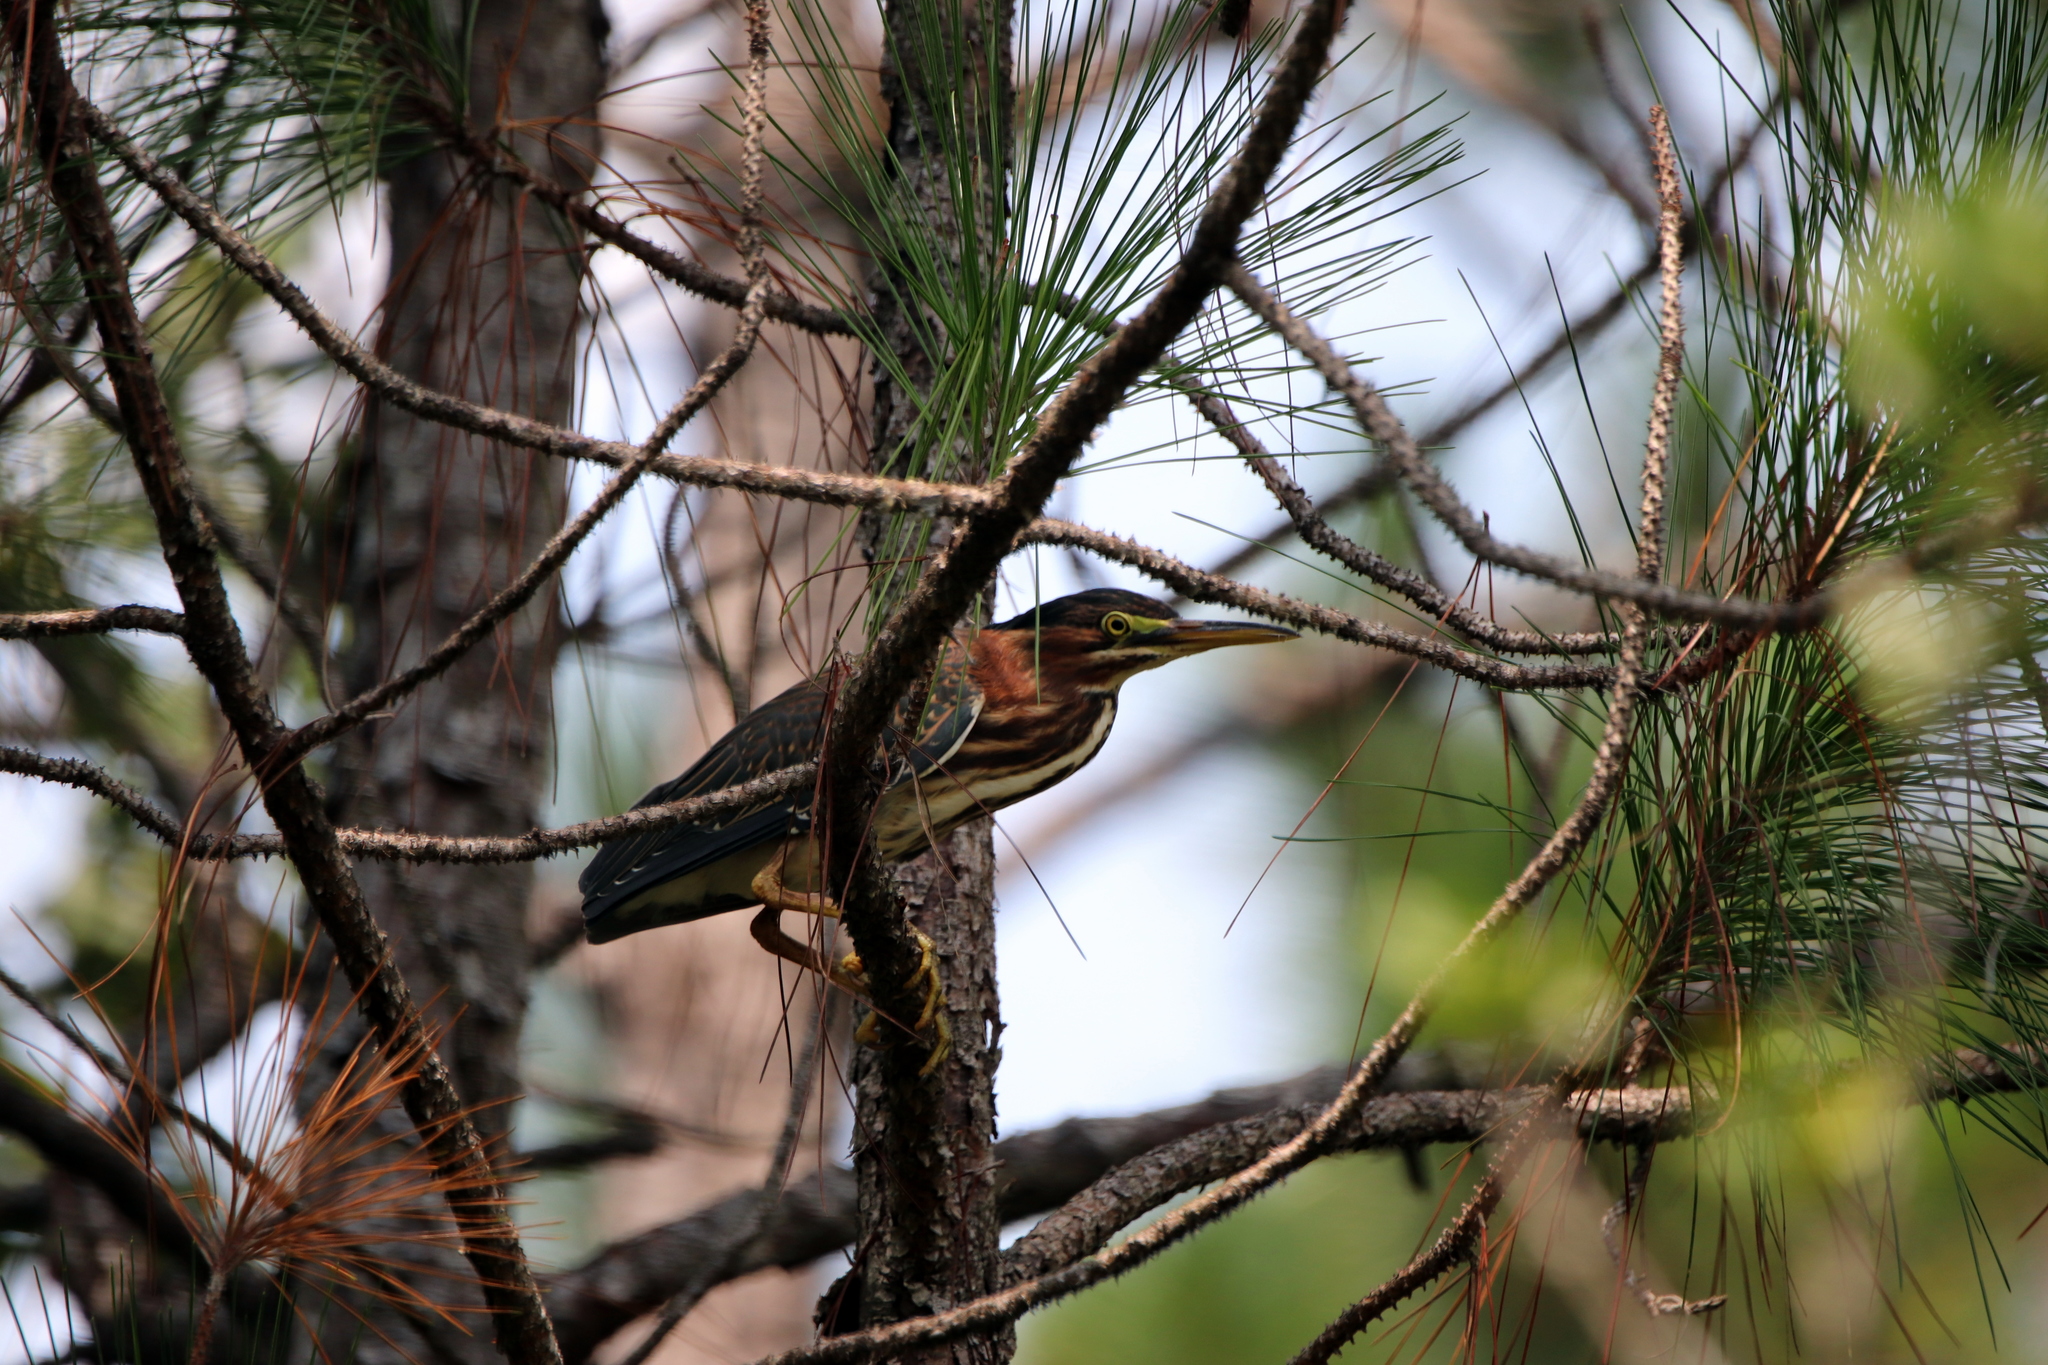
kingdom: Animalia
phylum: Chordata
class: Aves
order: Pelecaniformes
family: Ardeidae
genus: Butorides
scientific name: Butorides virescens
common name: Green heron
